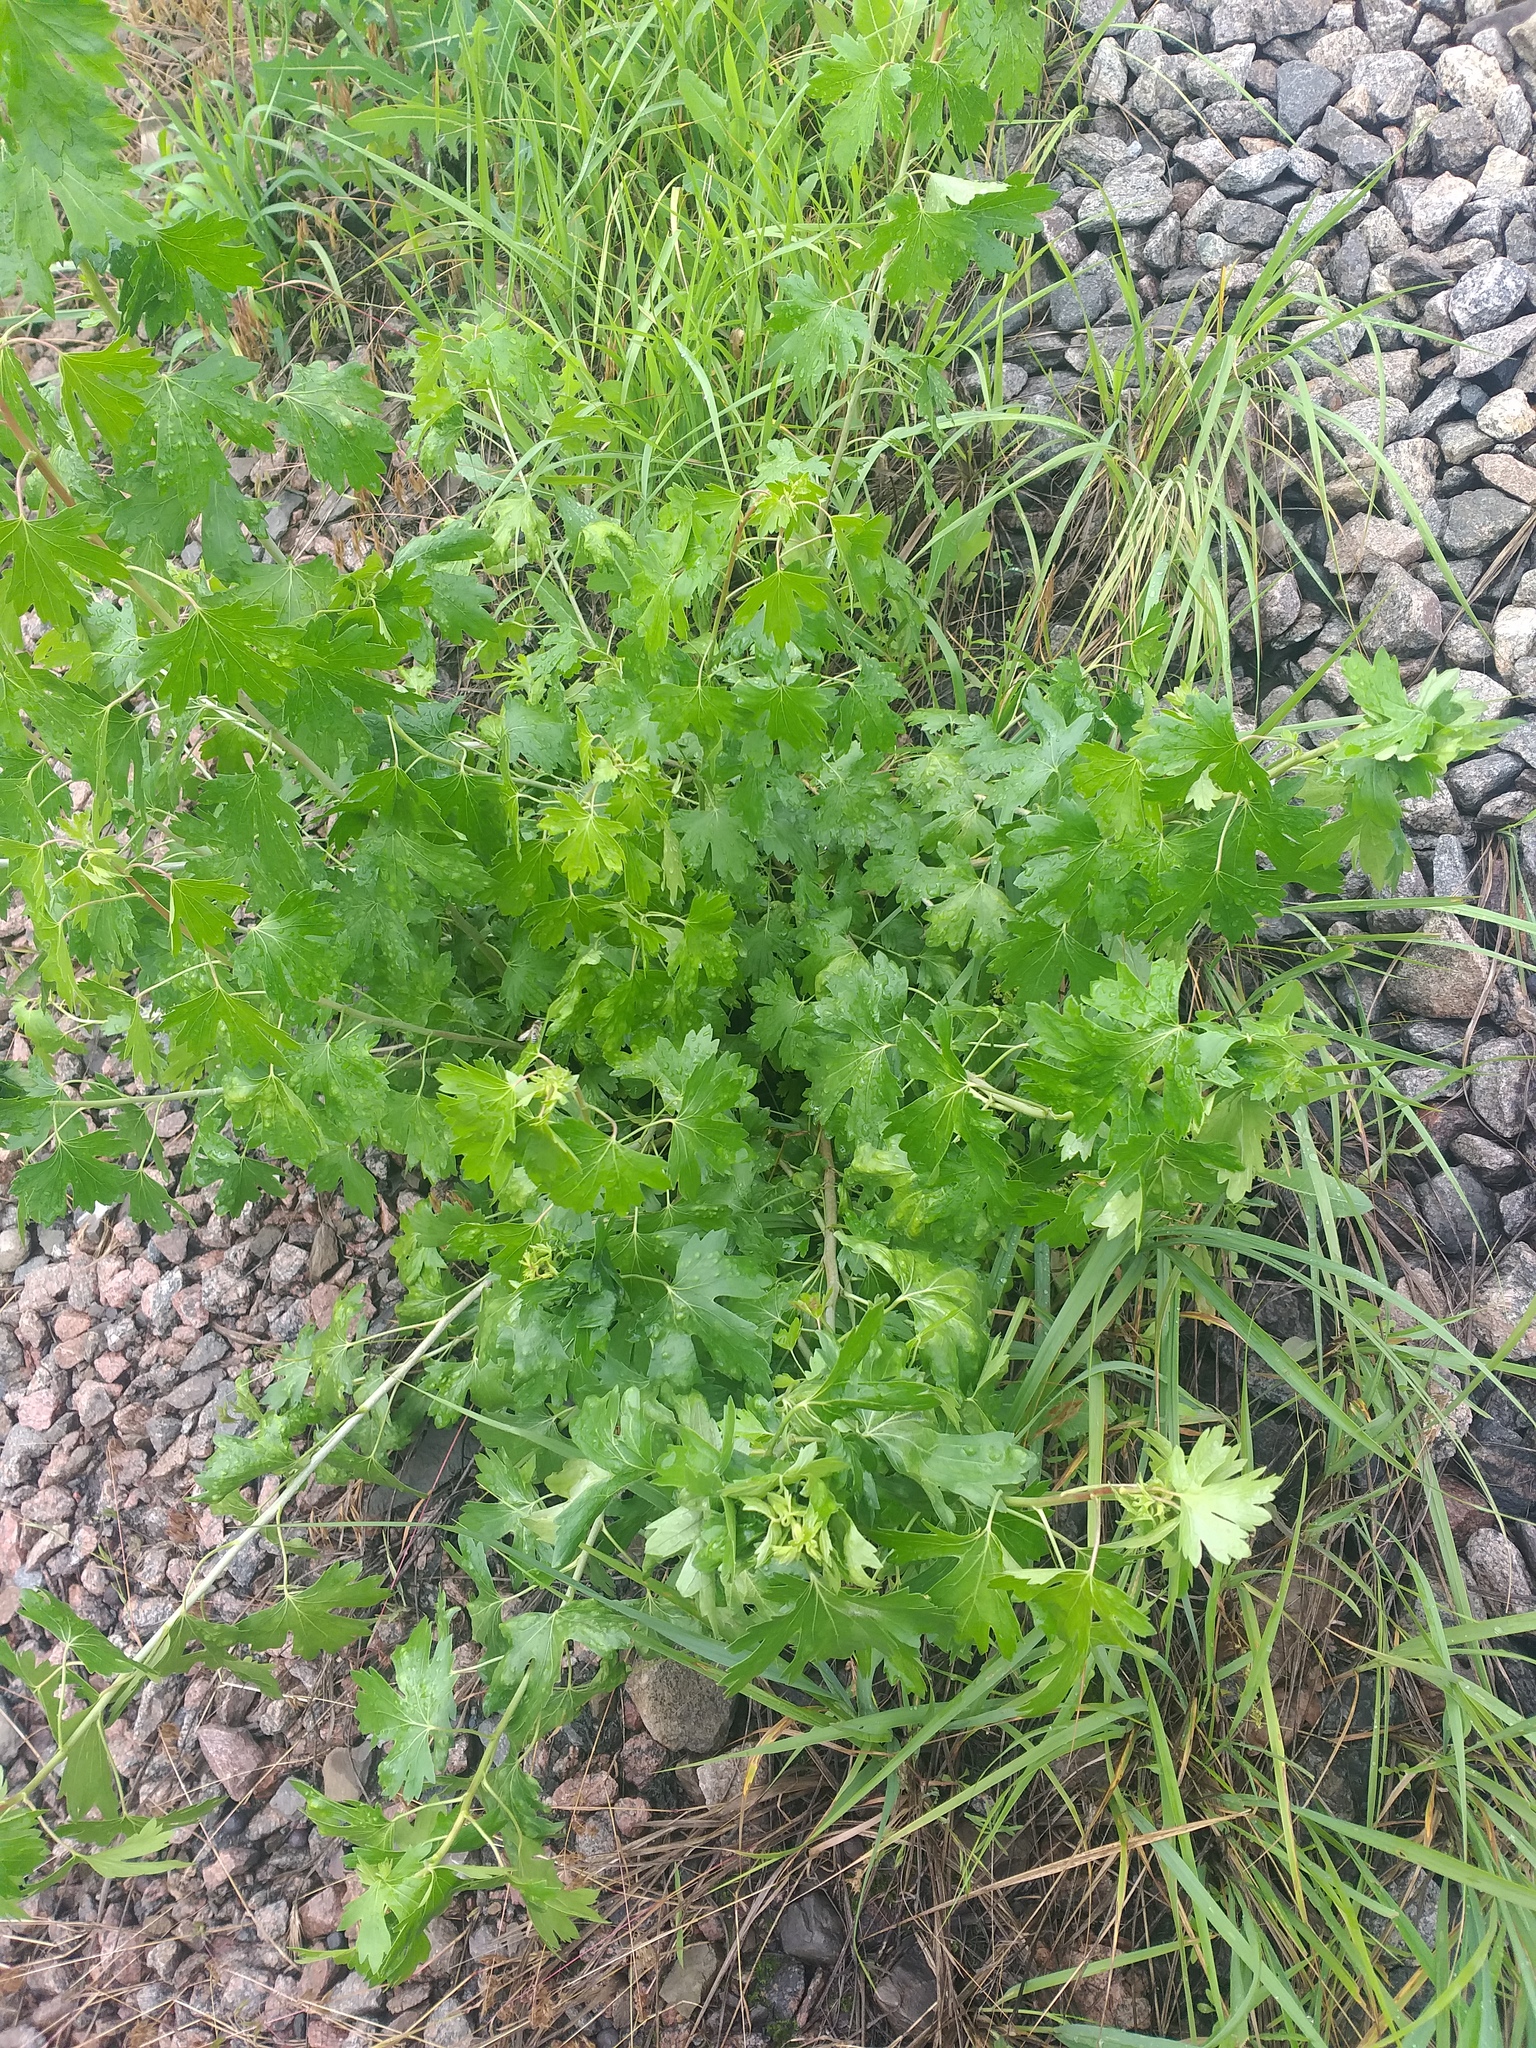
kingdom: Plantae
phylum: Tracheophyta
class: Magnoliopsida
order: Saxifragales
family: Grossulariaceae
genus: Ribes
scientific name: Ribes aureum
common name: Golden currant
